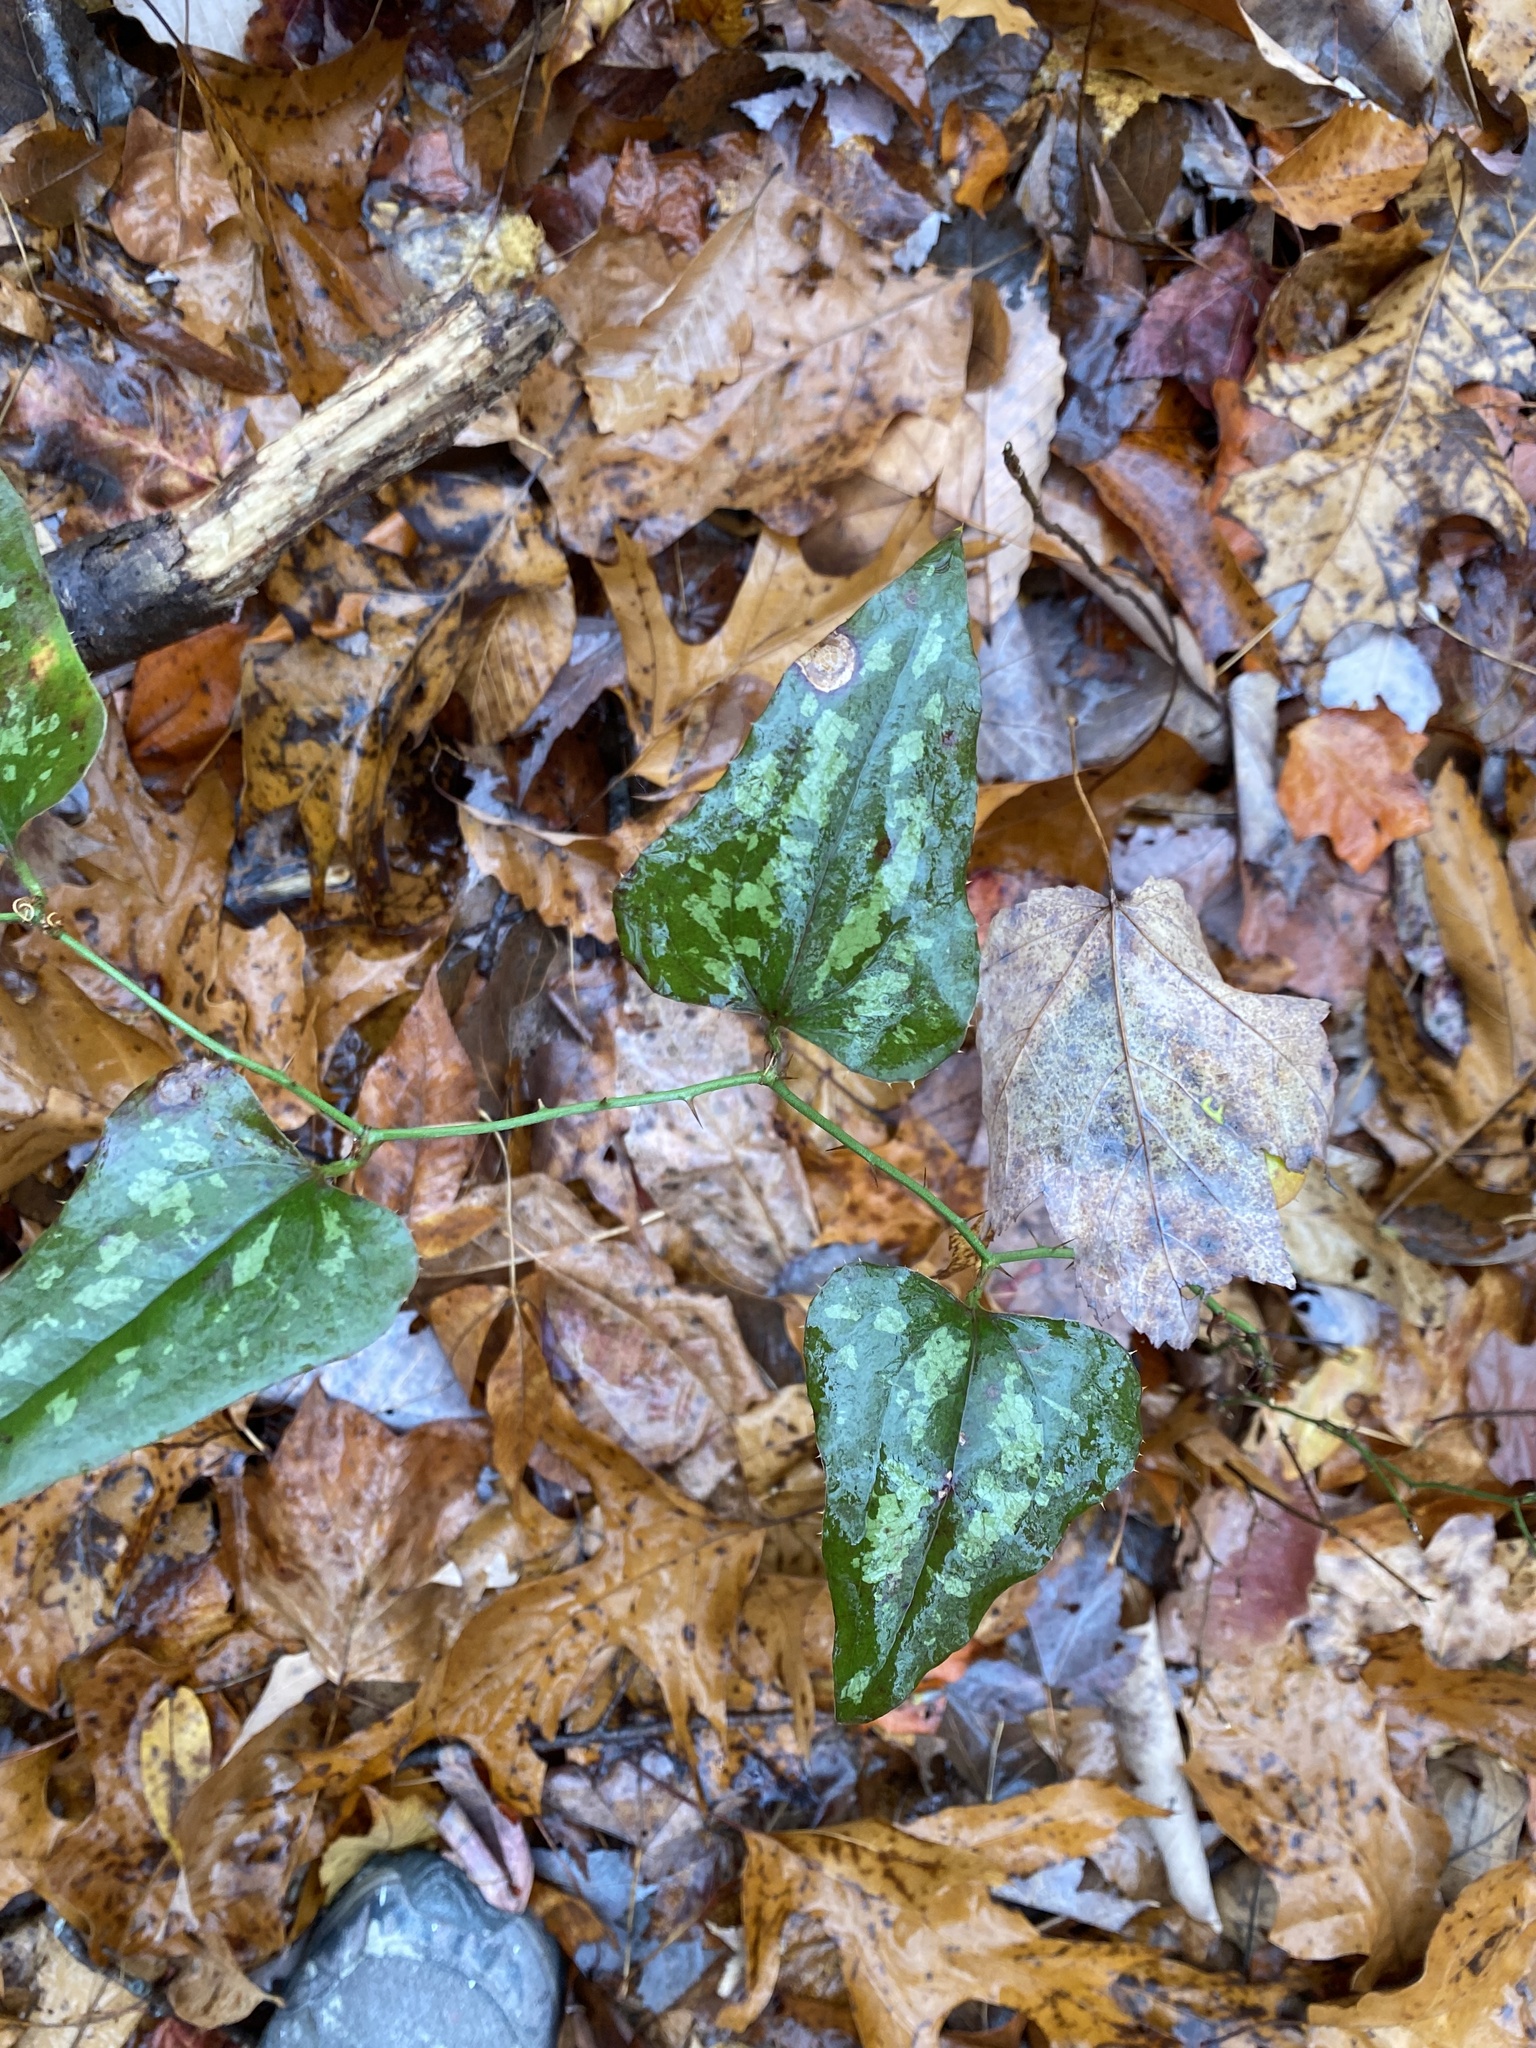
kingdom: Plantae
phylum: Tracheophyta
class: Liliopsida
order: Liliales
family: Smilacaceae
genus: Smilax
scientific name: Smilax bona-nox
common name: Catbrier
